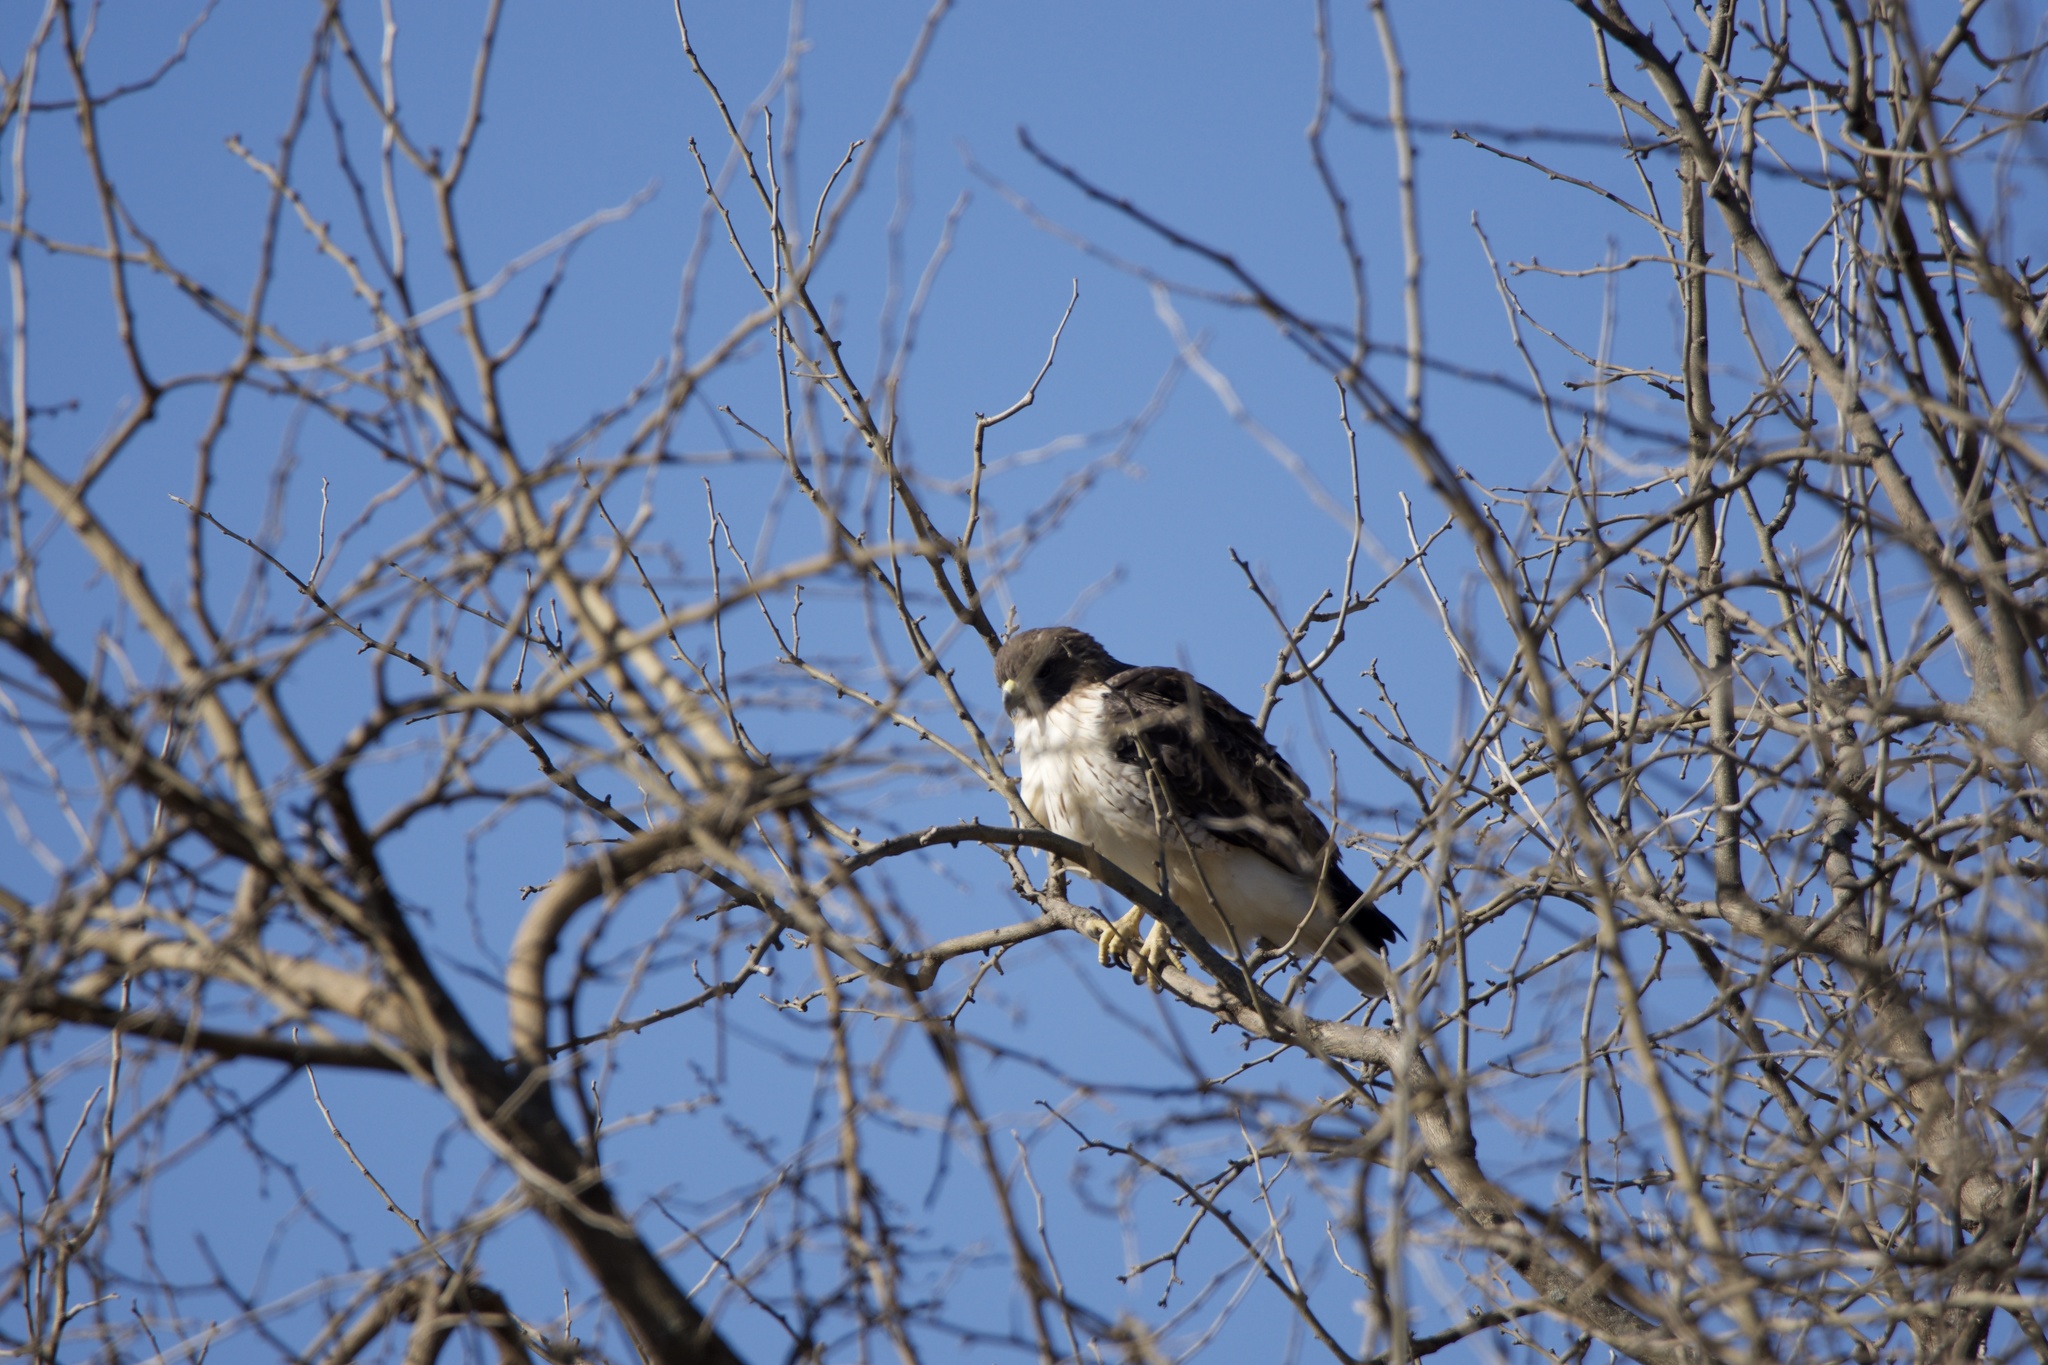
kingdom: Animalia
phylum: Chordata
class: Aves
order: Accipitriformes
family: Accipitridae
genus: Buteo
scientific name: Buteo jamaicensis
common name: Red-tailed hawk
